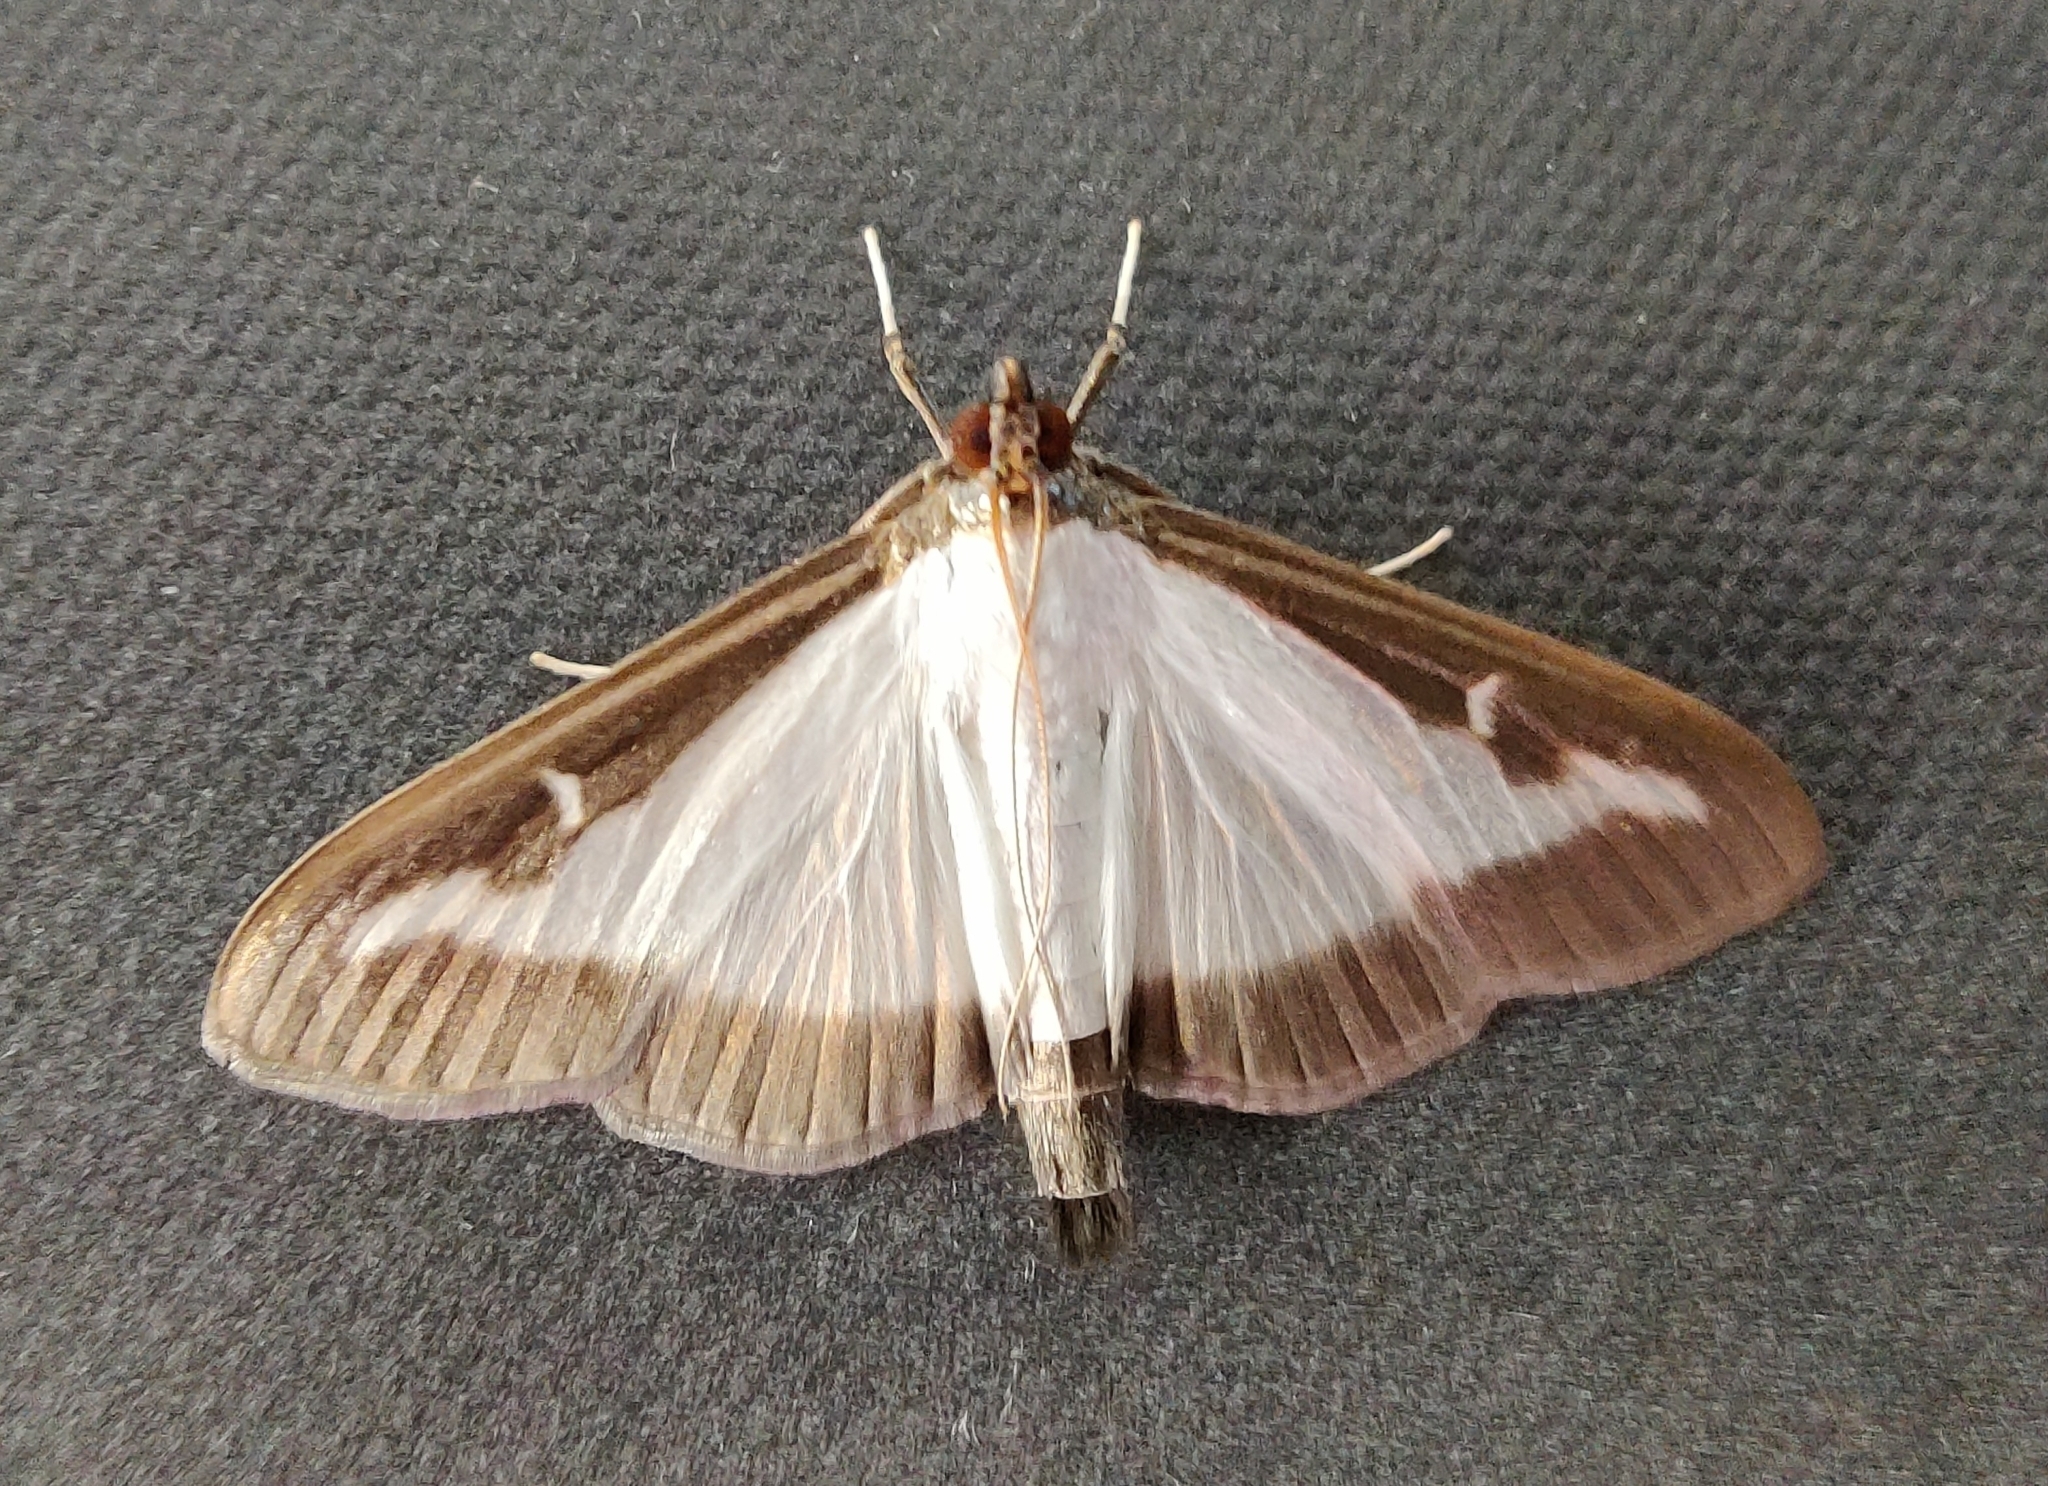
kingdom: Animalia
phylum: Arthropoda
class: Insecta
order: Lepidoptera
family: Crambidae
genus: Cydalima
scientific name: Cydalima perspectalis
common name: Box tree moth
